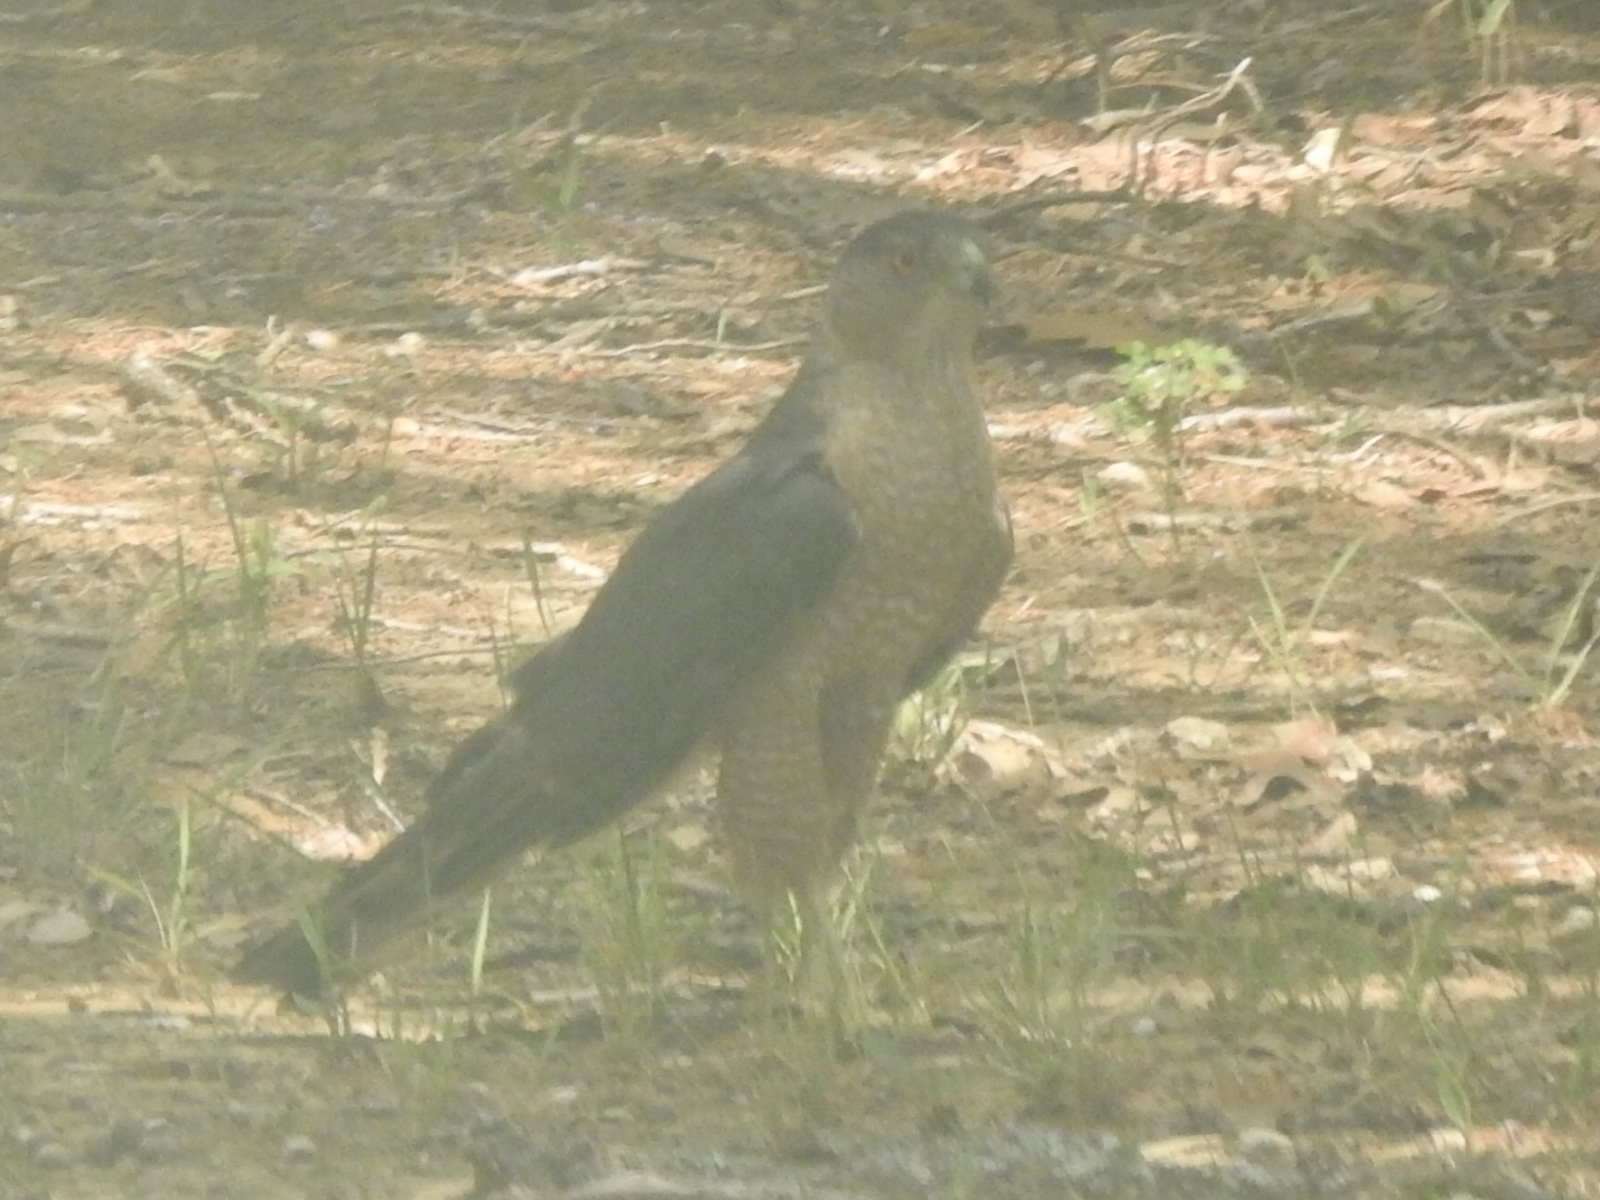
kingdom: Animalia
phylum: Chordata
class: Aves
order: Accipitriformes
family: Accipitridae
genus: Accipiter
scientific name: Accipiter cooperii
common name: Cooper's hawk
